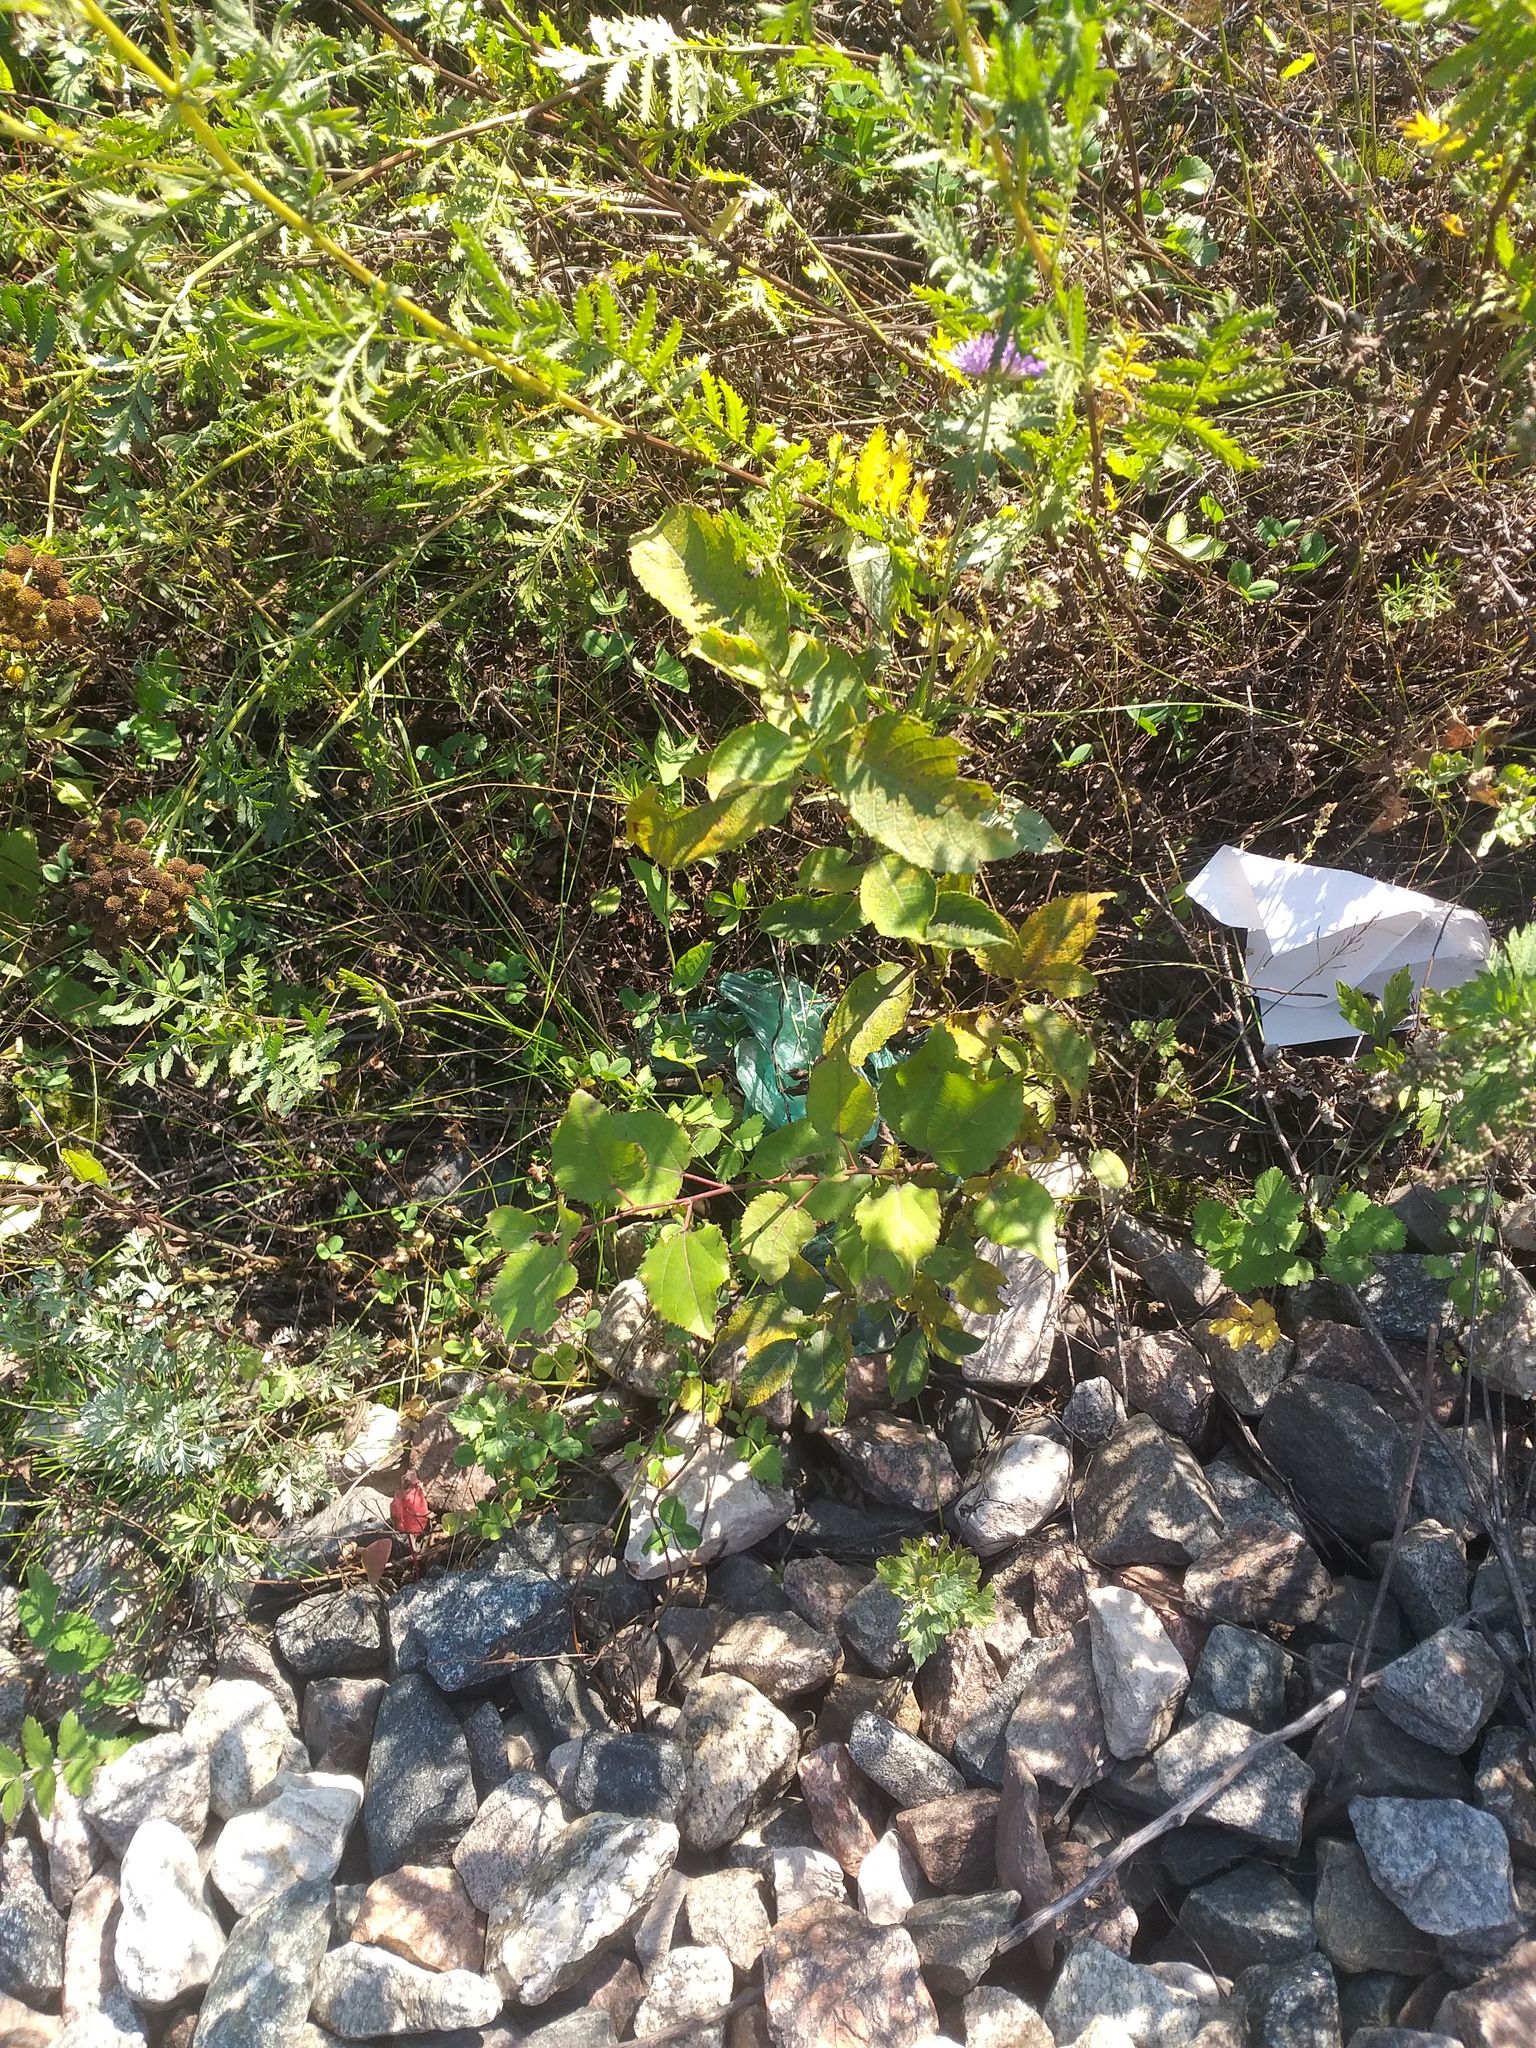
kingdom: Plantae
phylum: Tracheophyta
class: Magnoliopsida
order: Malpighiales
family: Salicaceae
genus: Populus
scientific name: Populus tremula
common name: European aspen
